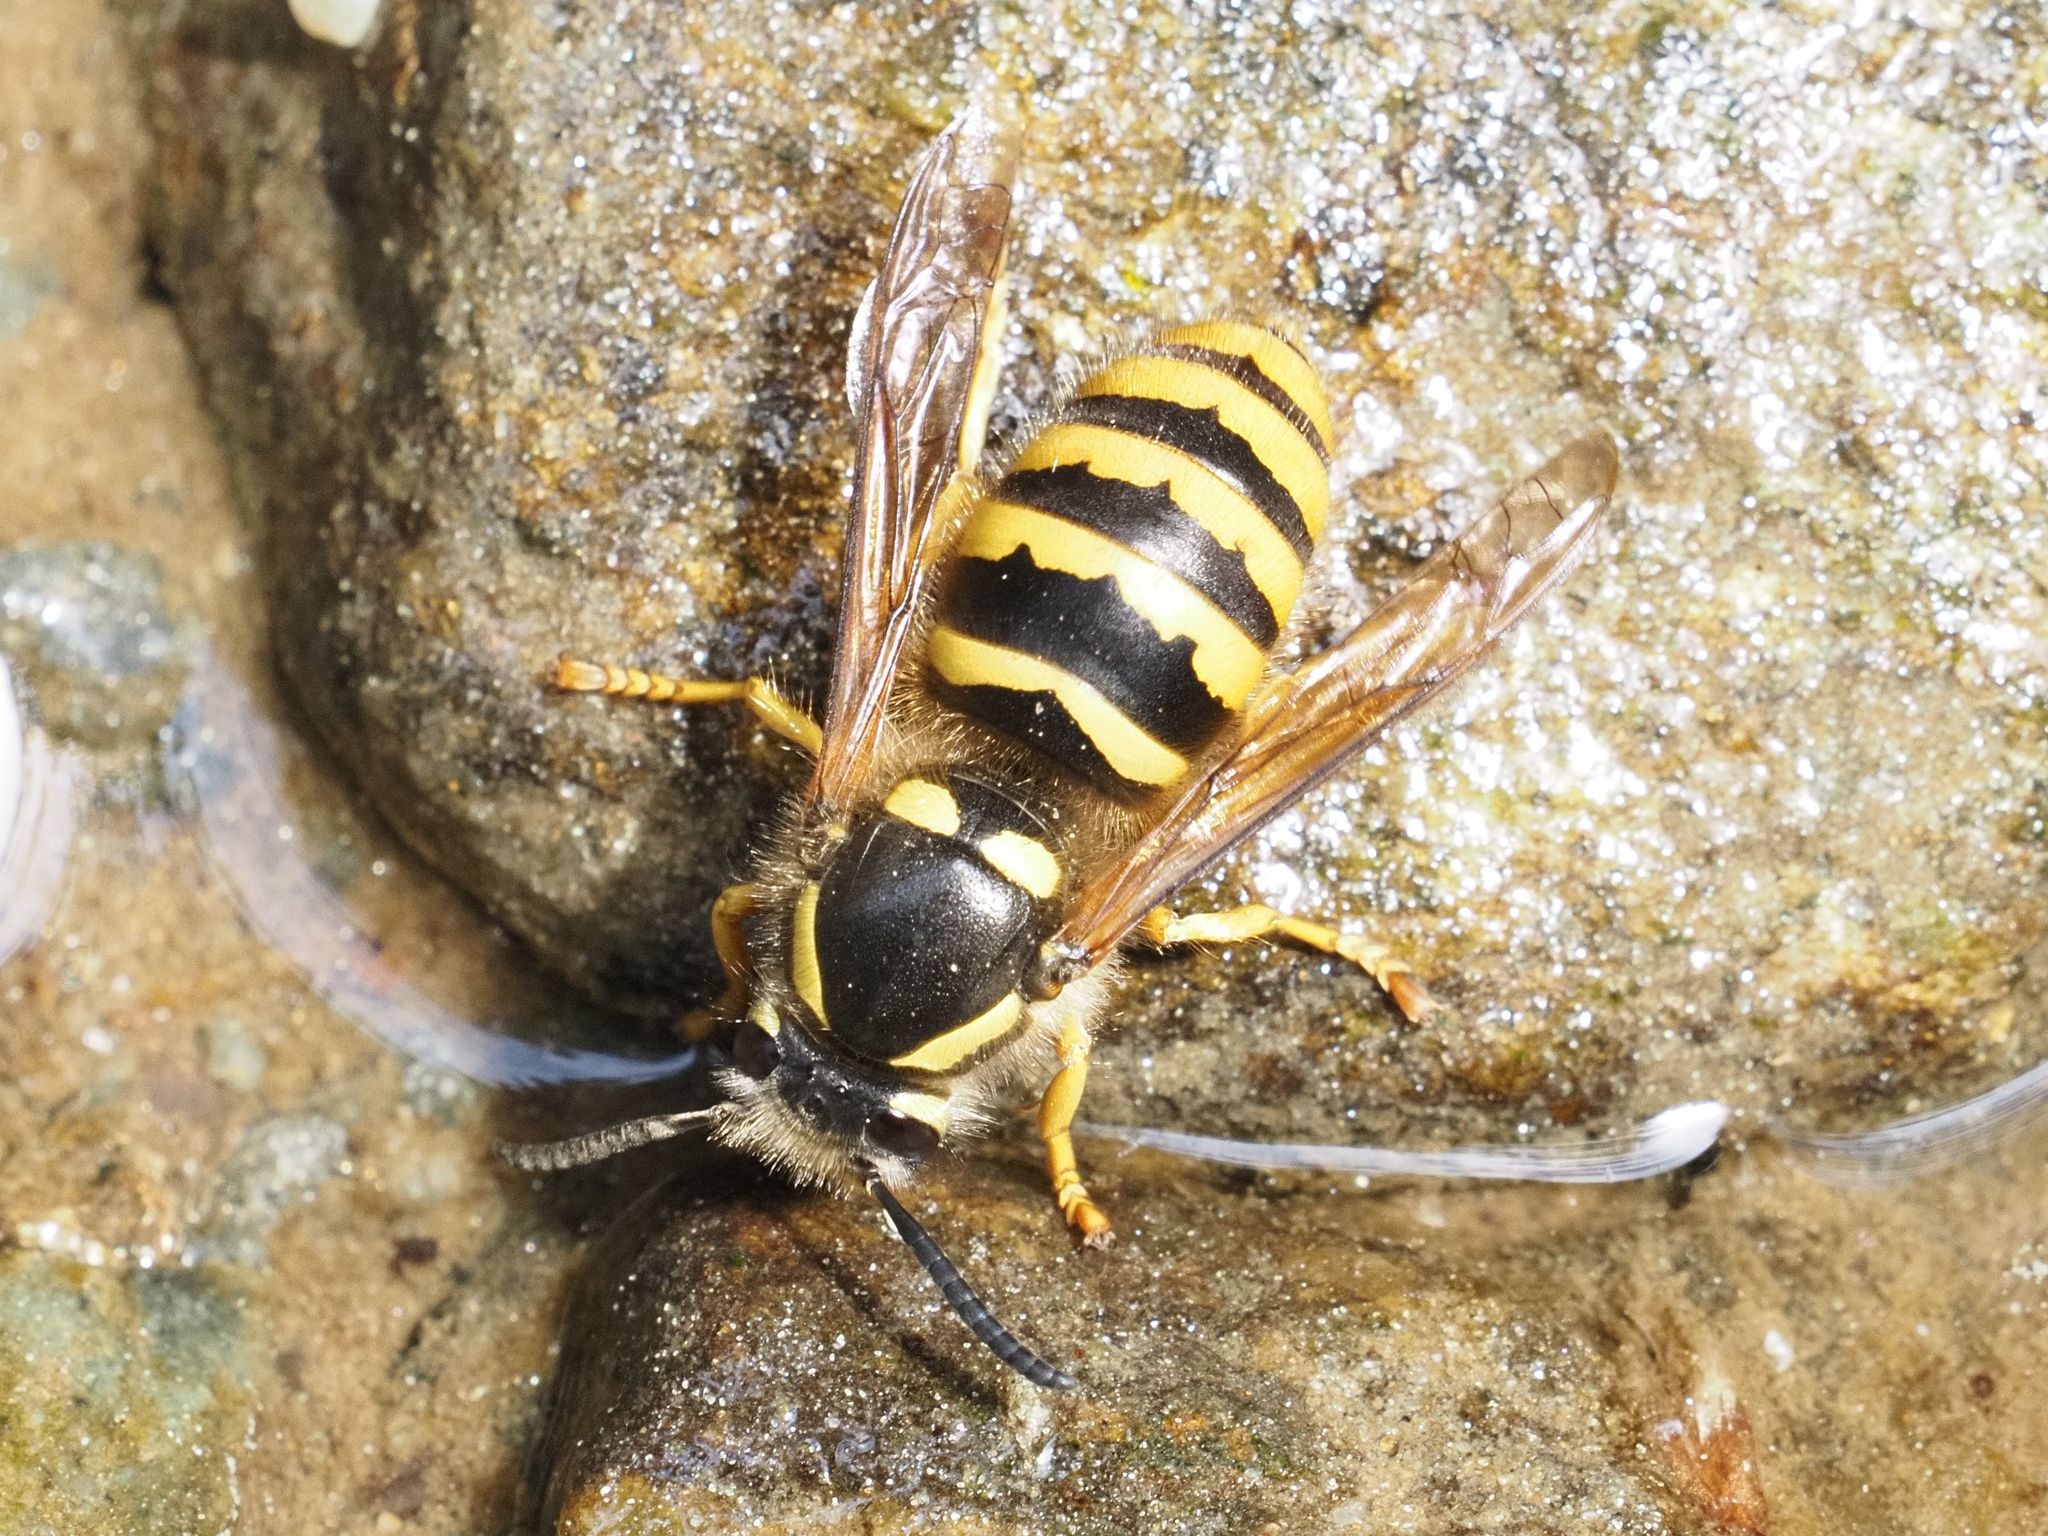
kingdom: Animalia
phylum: Arthropoda
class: Insecta
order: Hymenoptera
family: Vespidae
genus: Dolichovespula
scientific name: Dolichovespula sylvestris
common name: Tree wasp
